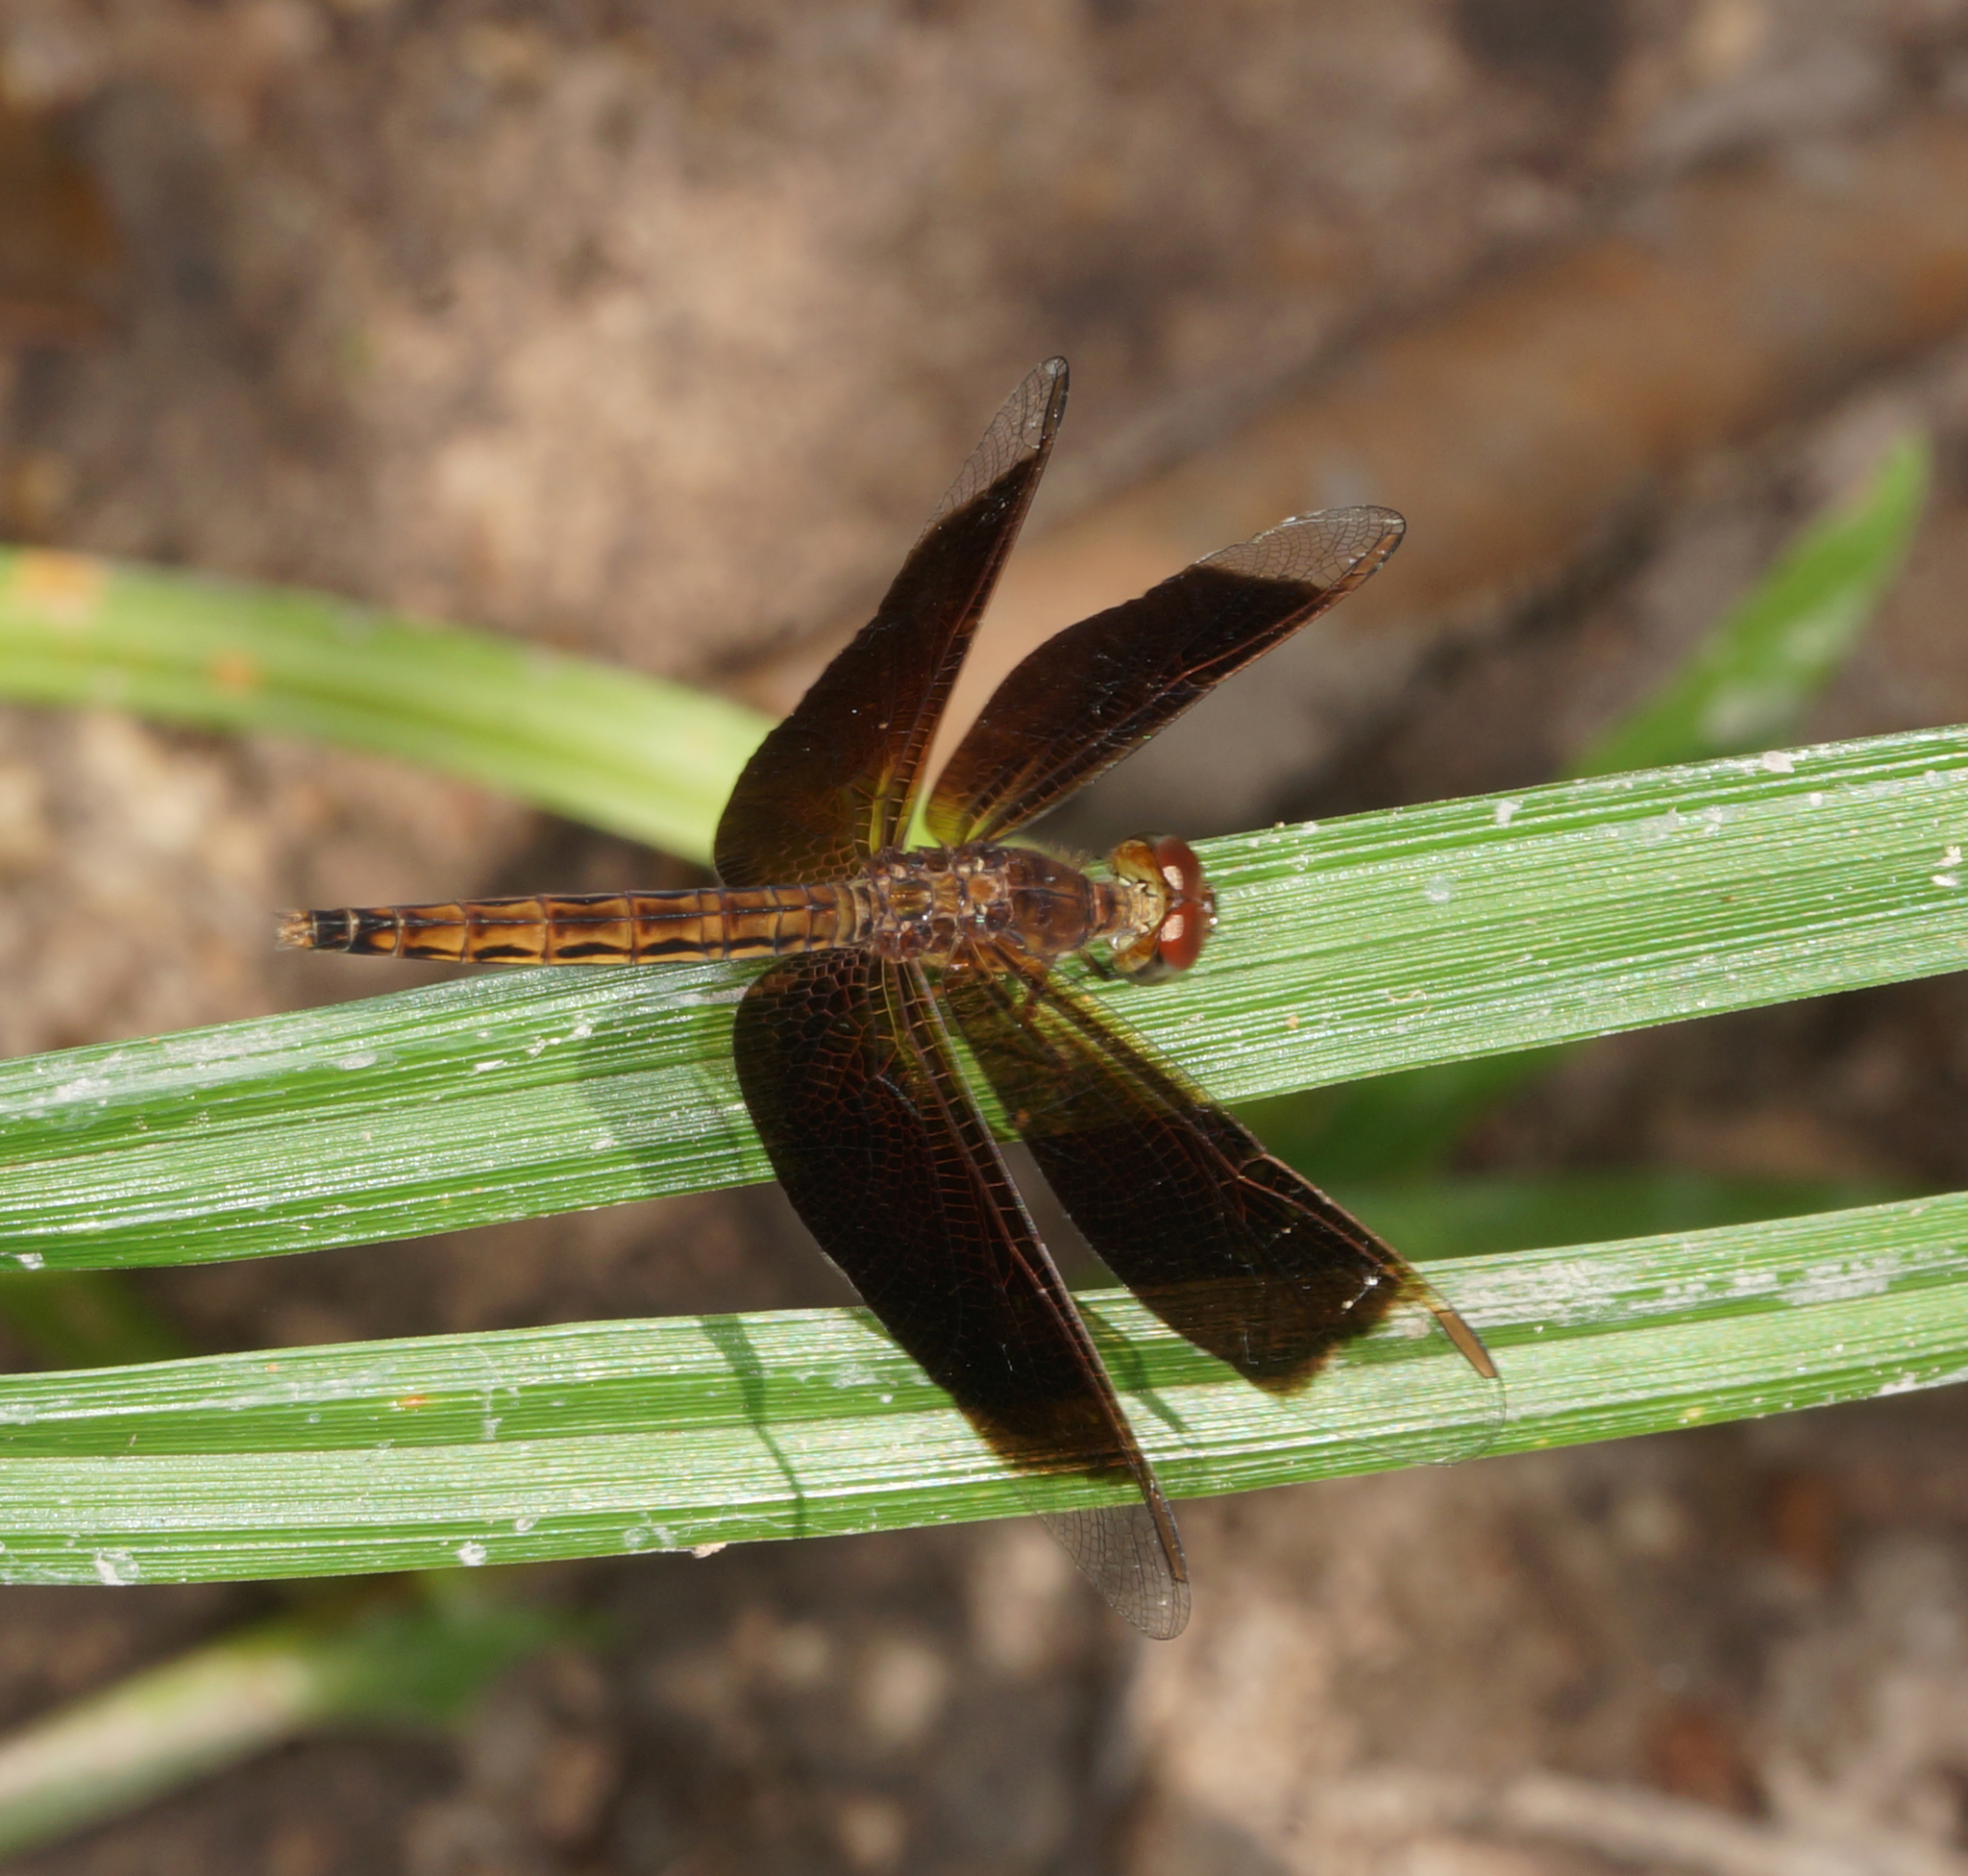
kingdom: Animalia
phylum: Arthropoda
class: Insecta
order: Odonata
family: Libellulidae
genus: Neurothemis
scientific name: Neurothemis fluctuans
